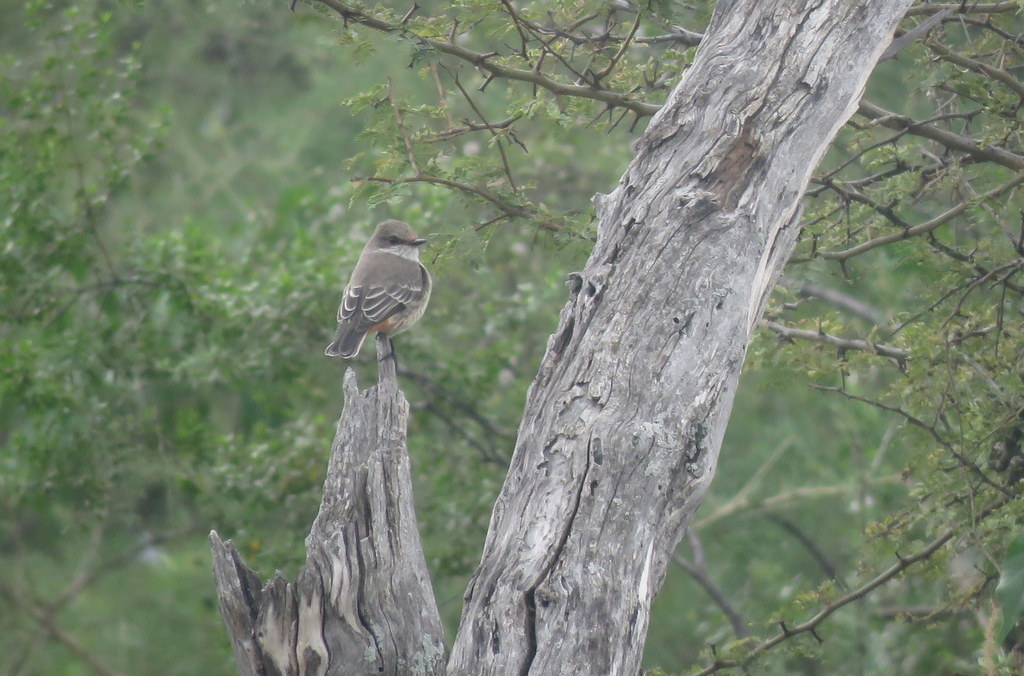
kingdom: Animalia
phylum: Chordata
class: Aves
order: Passeriformes
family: Tyrannidae
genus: Pyrocephalus
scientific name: Pyrocephalus rubinus
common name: Vermilion flycatcher
